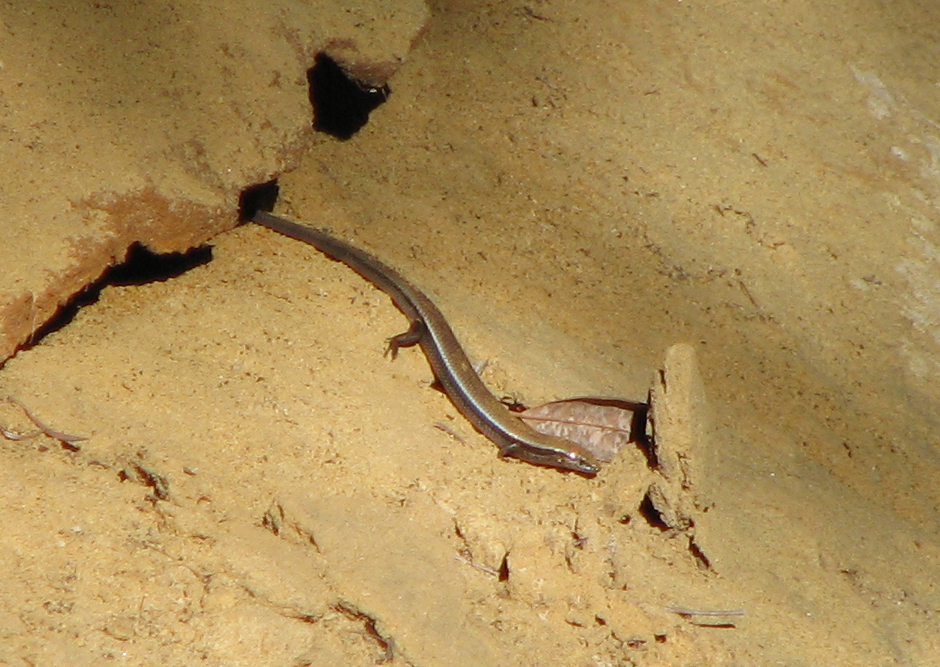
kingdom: Animalia
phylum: Chordata
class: Squamata
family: Scincidae
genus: Acritoscincus
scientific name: Acritoscincus platynotus
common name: Red-throated cool-skink
